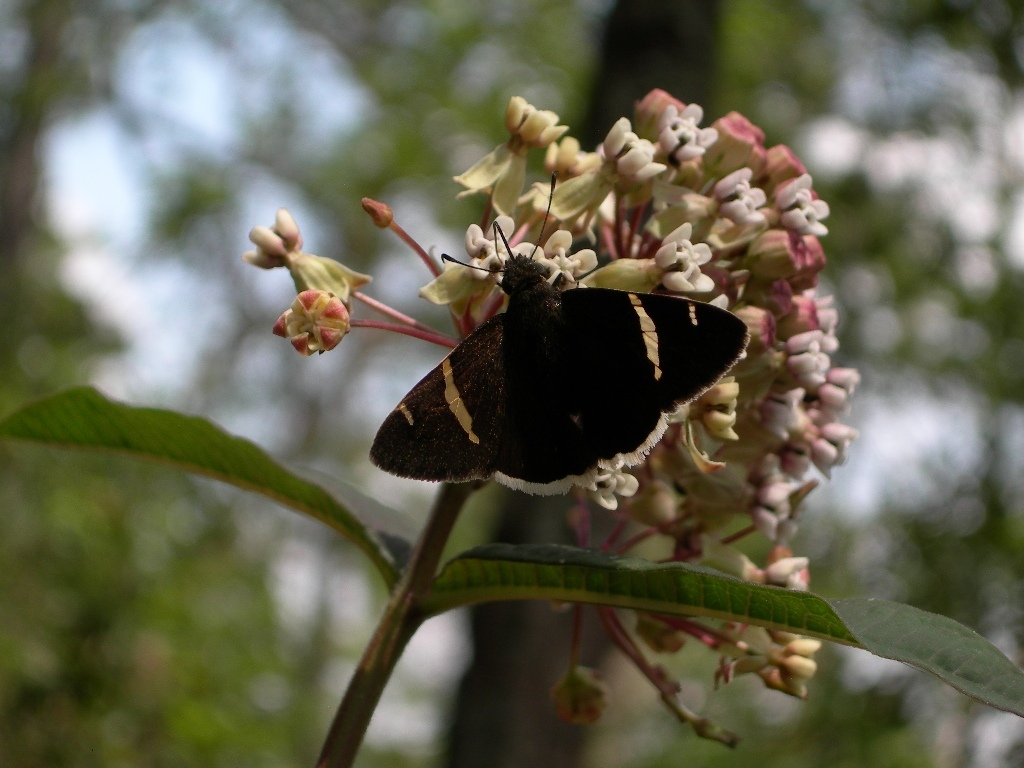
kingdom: Animalia
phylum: Arthropoda
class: Insecta
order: Lepidoptera
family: Hesperiidae
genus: Thorybes
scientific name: Thorybes cincta
